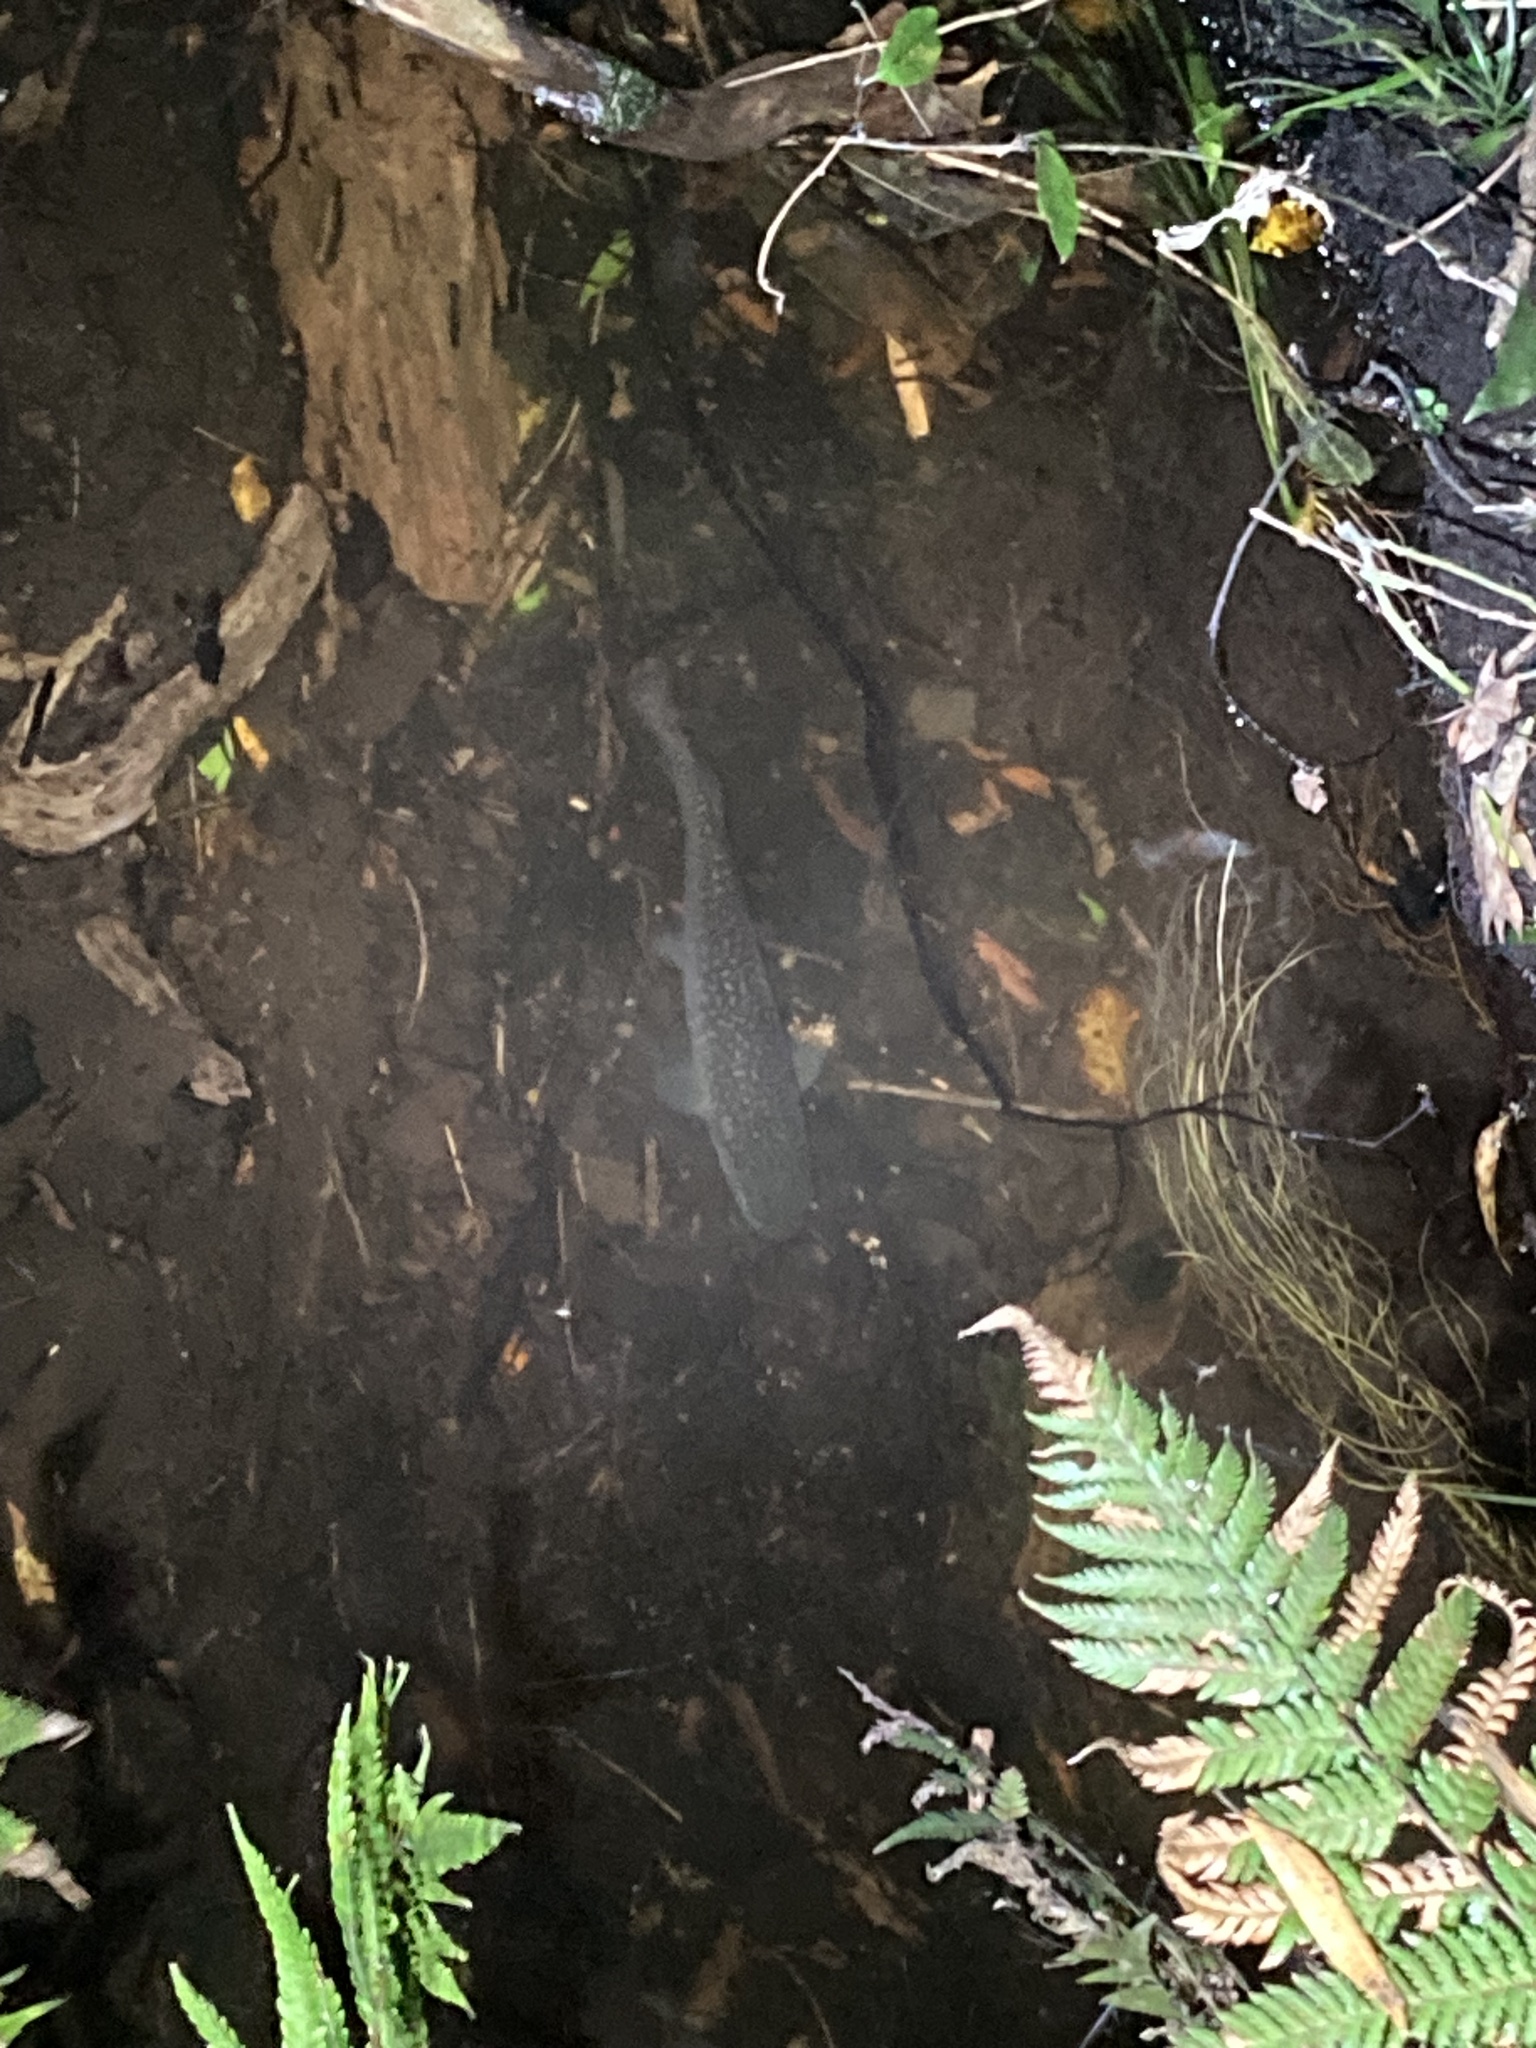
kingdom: Animalia
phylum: Chordata
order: Osmeriformes
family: Galaxiidae
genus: Galaxias
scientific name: Galaxias argenteus
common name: Giant kokopu
